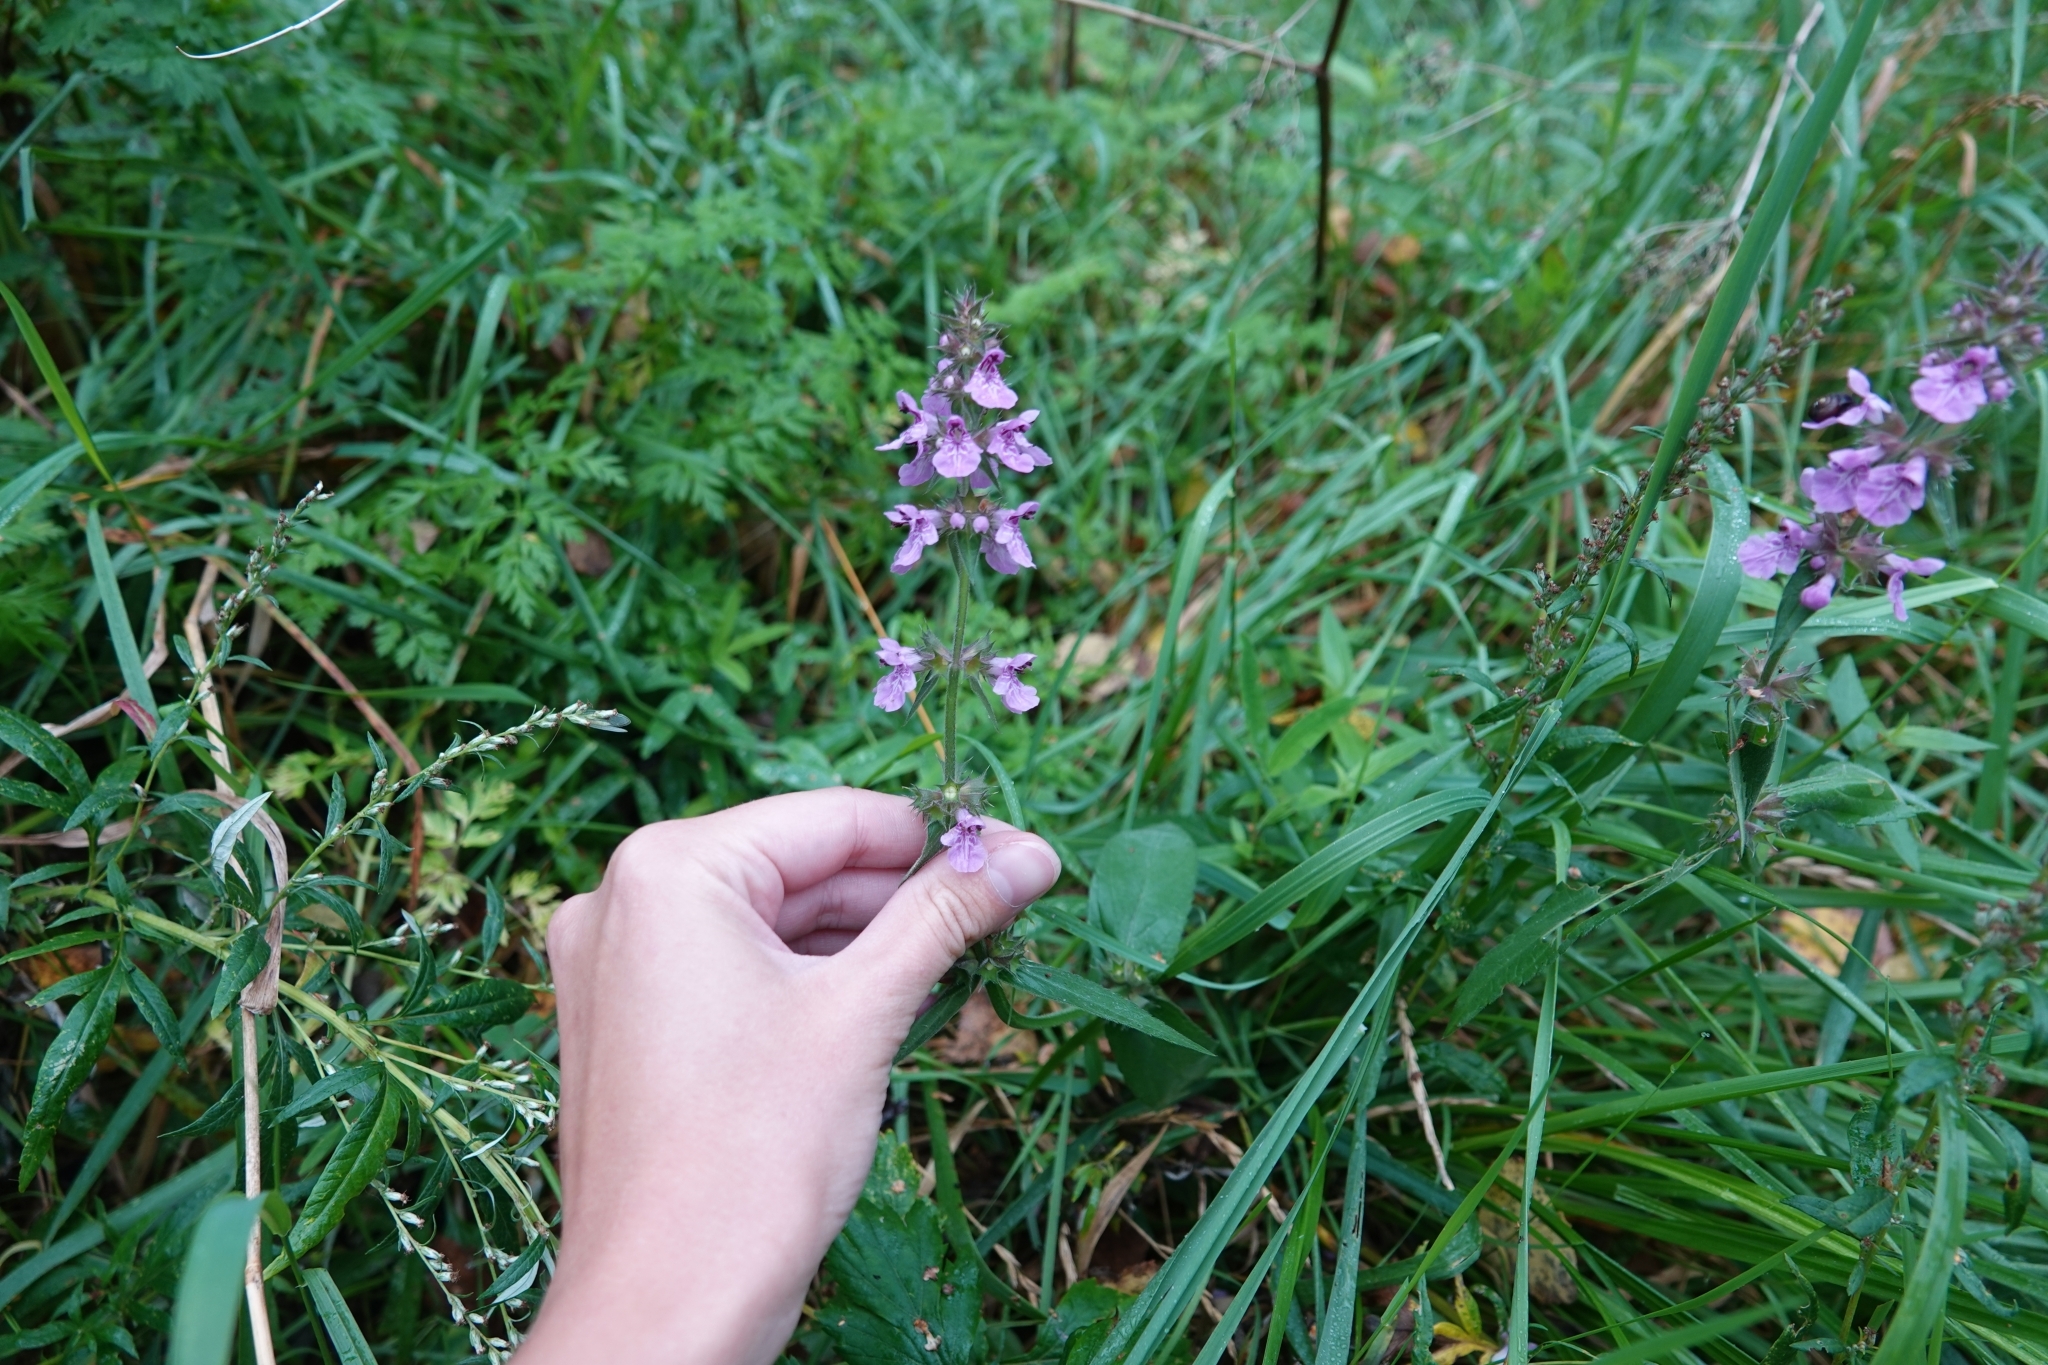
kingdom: Plantae
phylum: Tracheophyta
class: Magnoliopsida
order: Lamiales
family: Lamiaceae
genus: Stachys
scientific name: Stachys palustris
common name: Marsh woundwort
